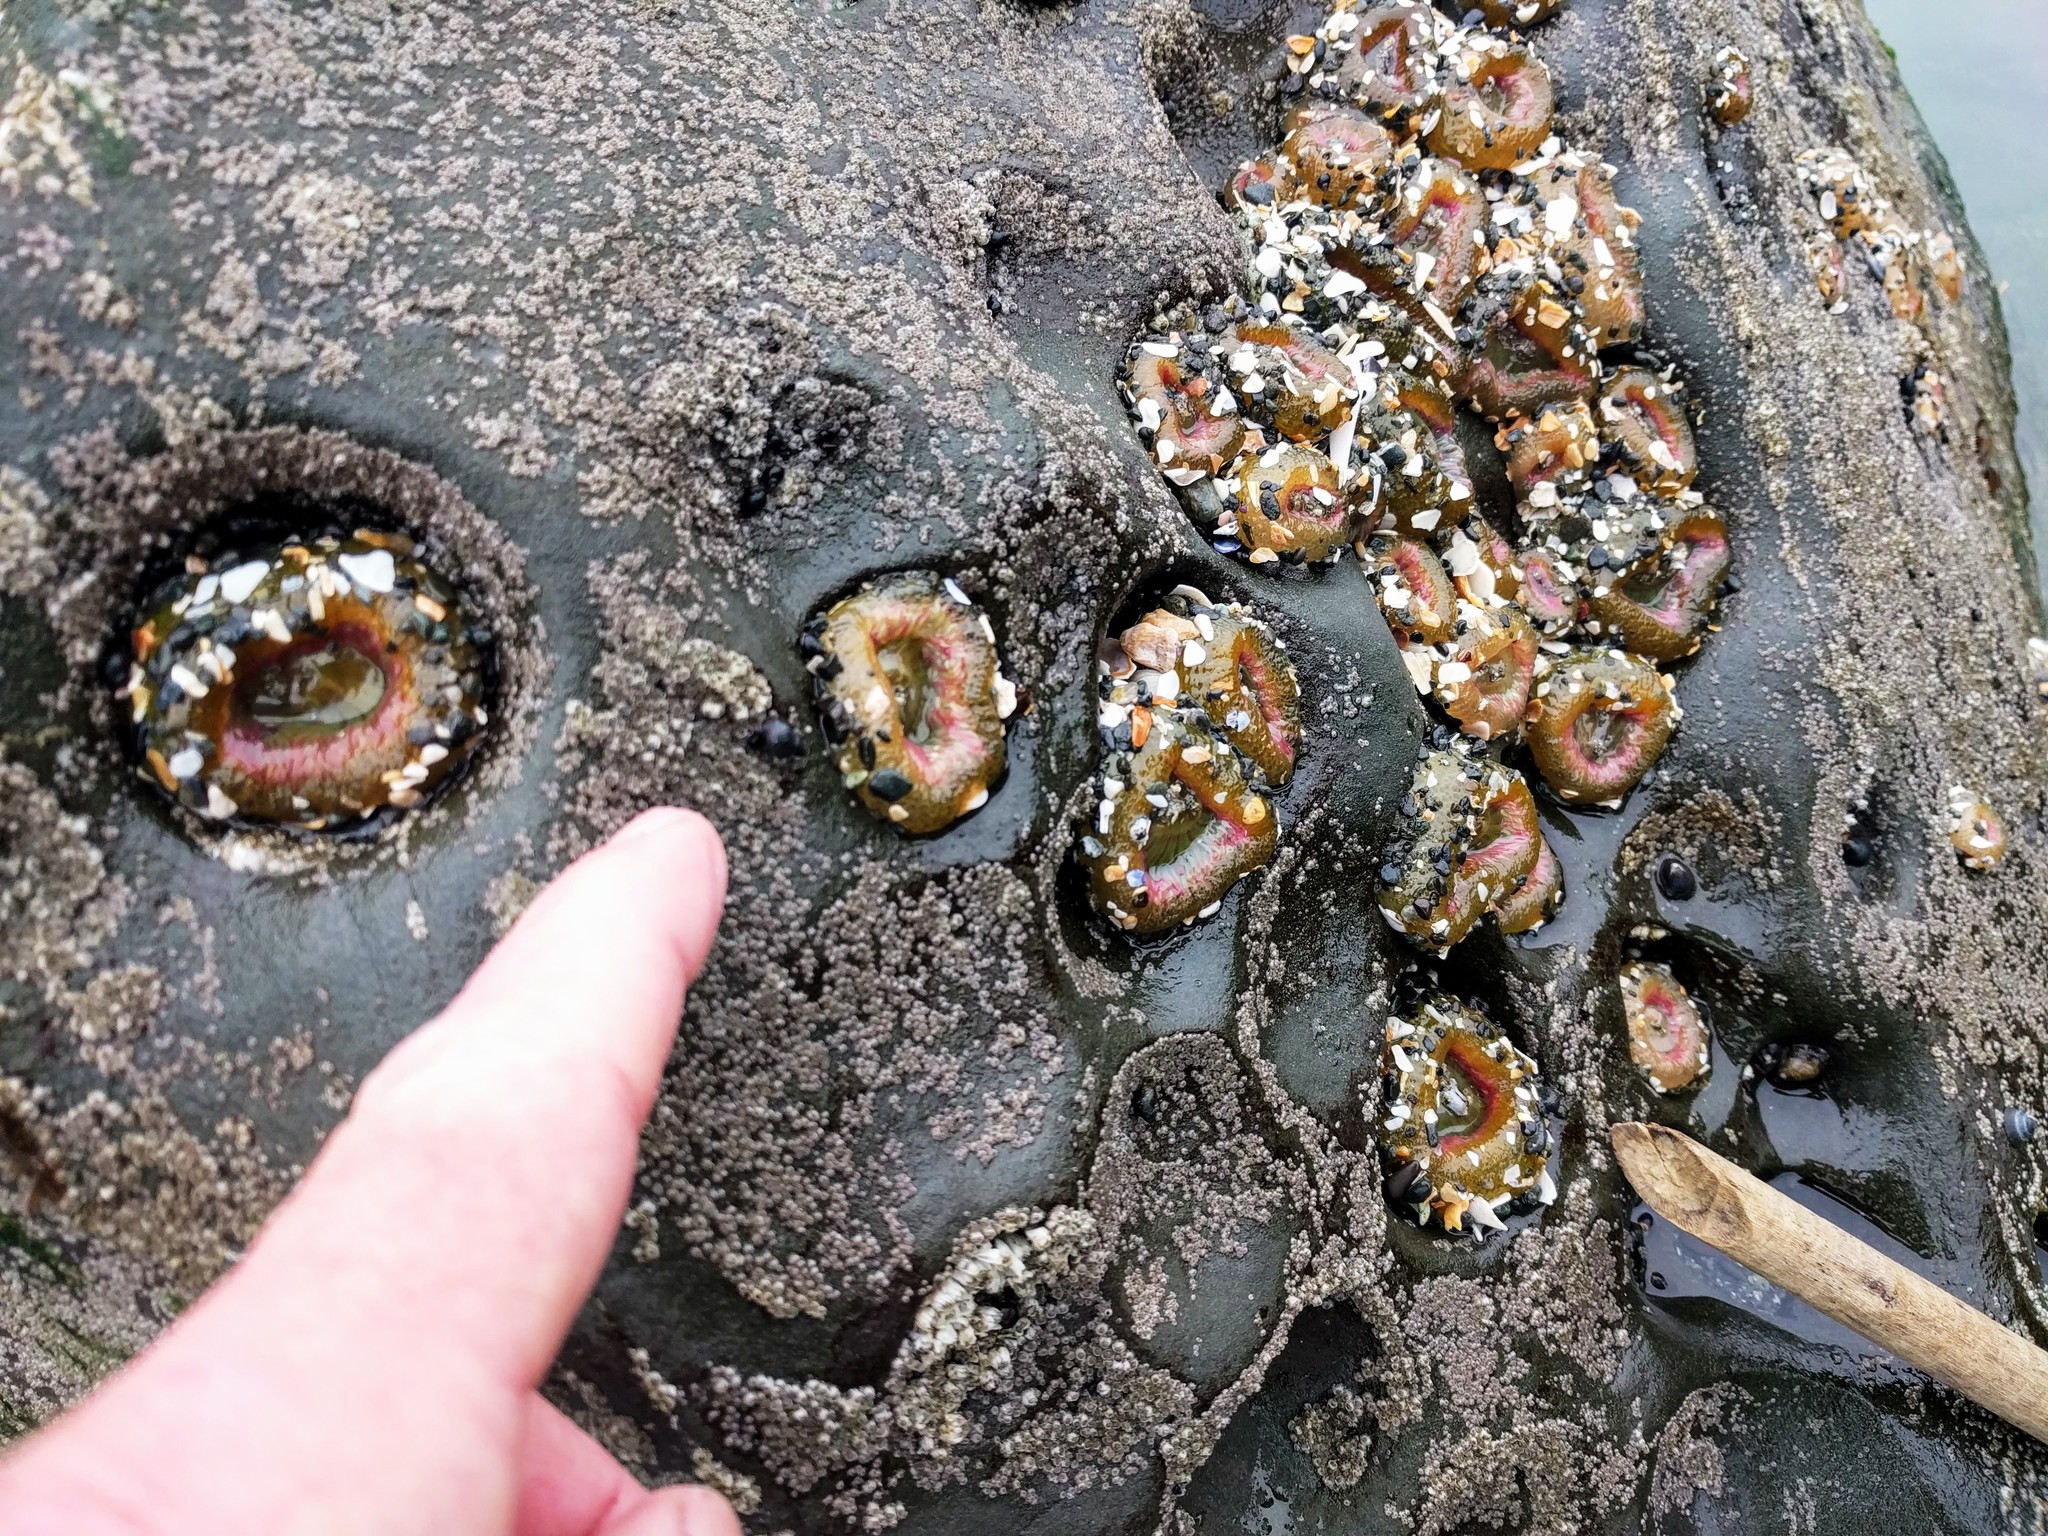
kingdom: Animalia
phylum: Cnidaria
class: Anthozoa
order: Actiniaria
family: Actiniidae
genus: Anthopleura
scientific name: Anthopleura elegantissima
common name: Clonal anemone
